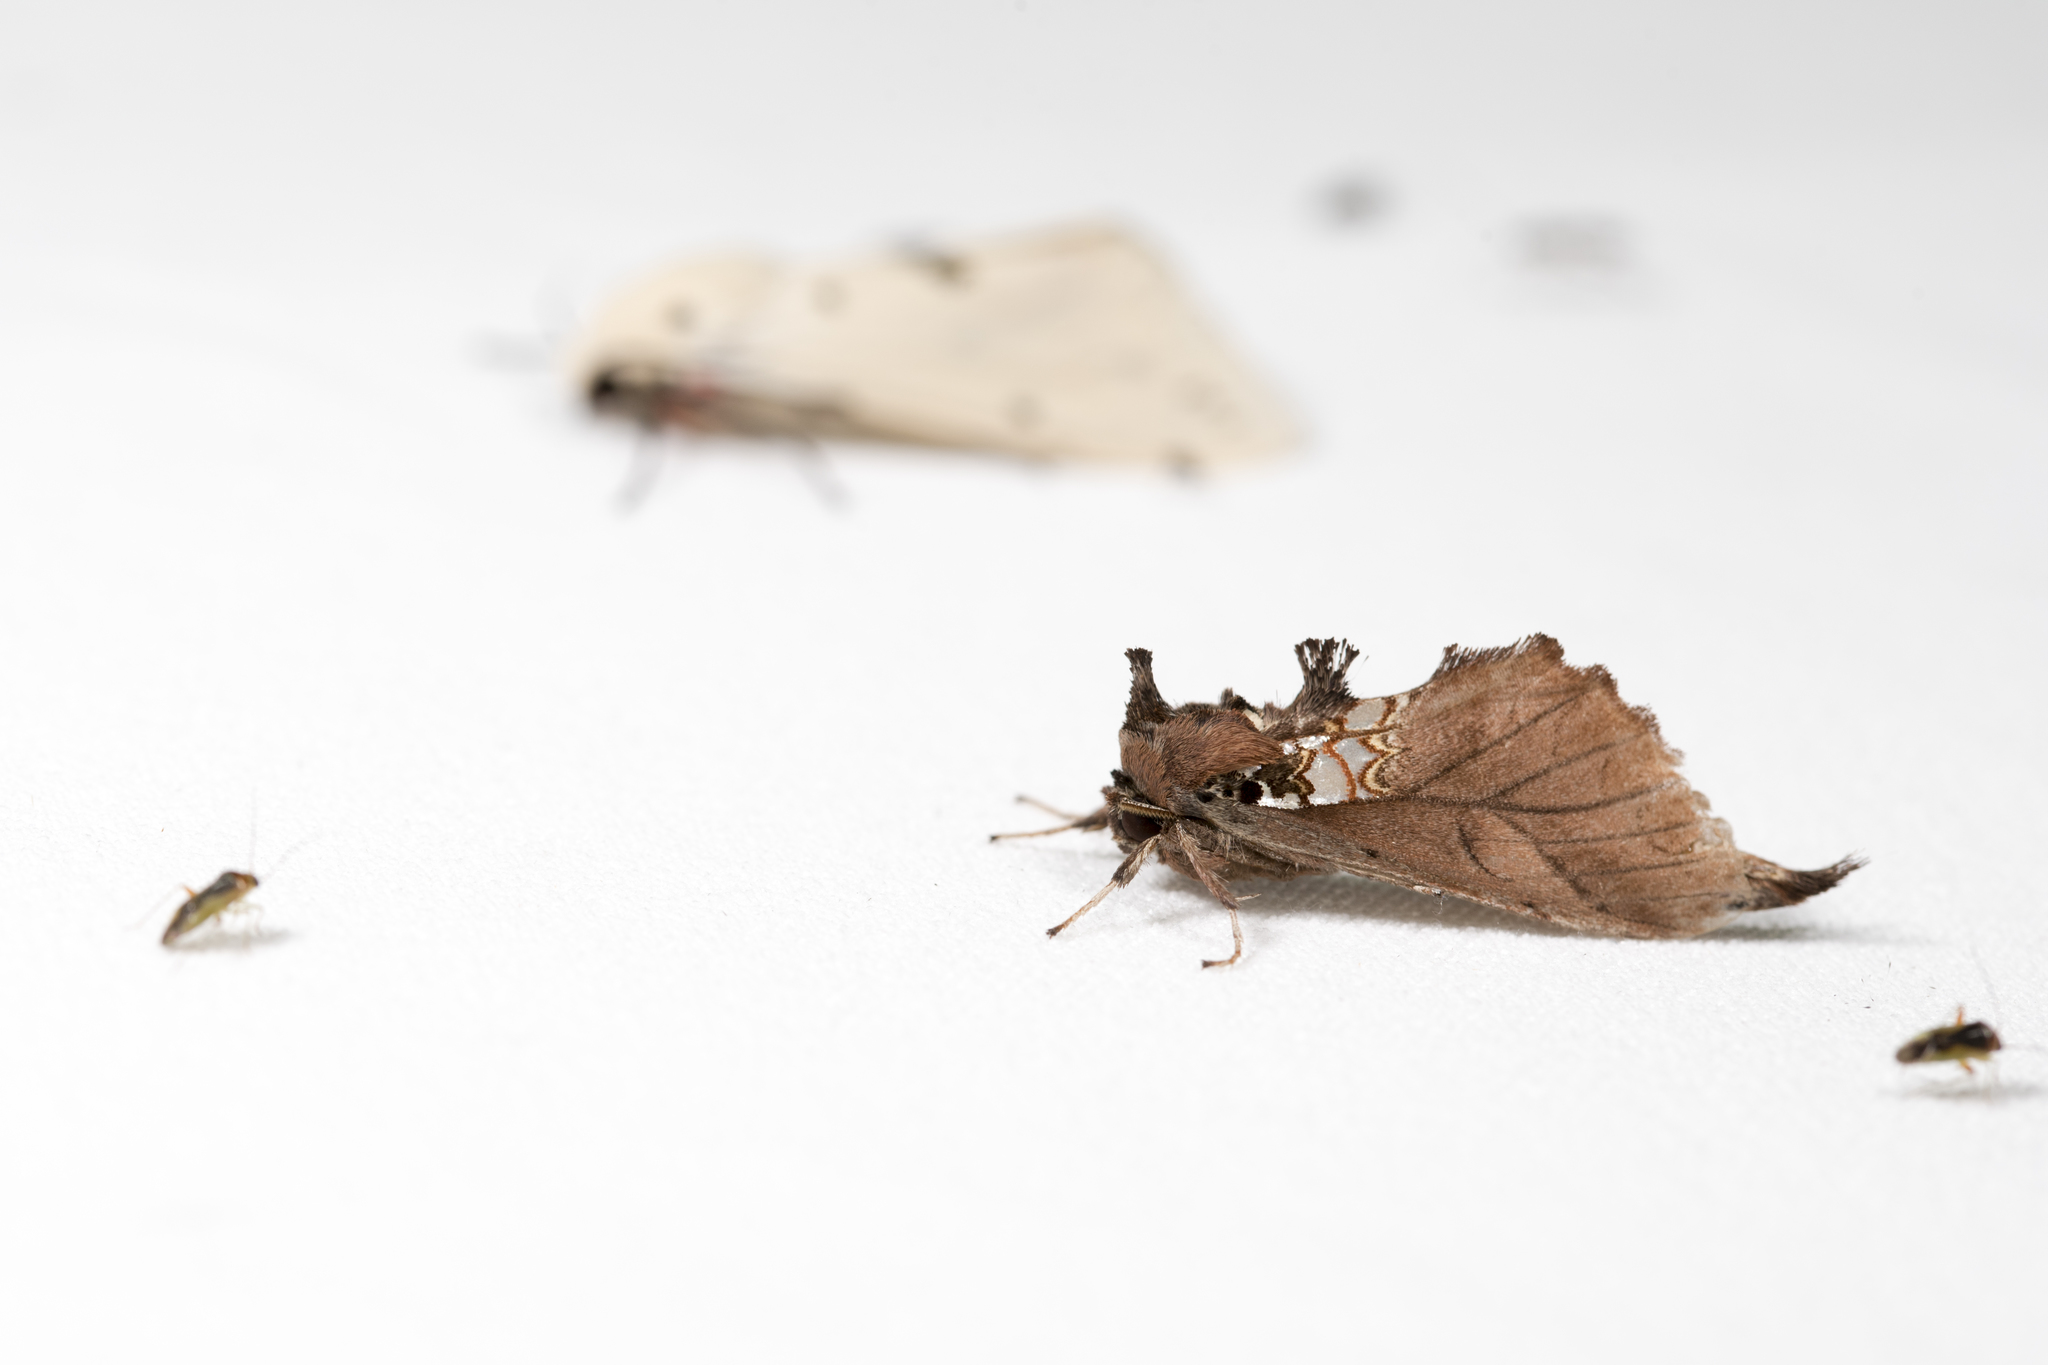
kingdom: Animalia
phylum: Arthropoda
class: Insecta
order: Lepidoptera
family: Notodontidae
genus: Spatalia
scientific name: Spatalia dives
